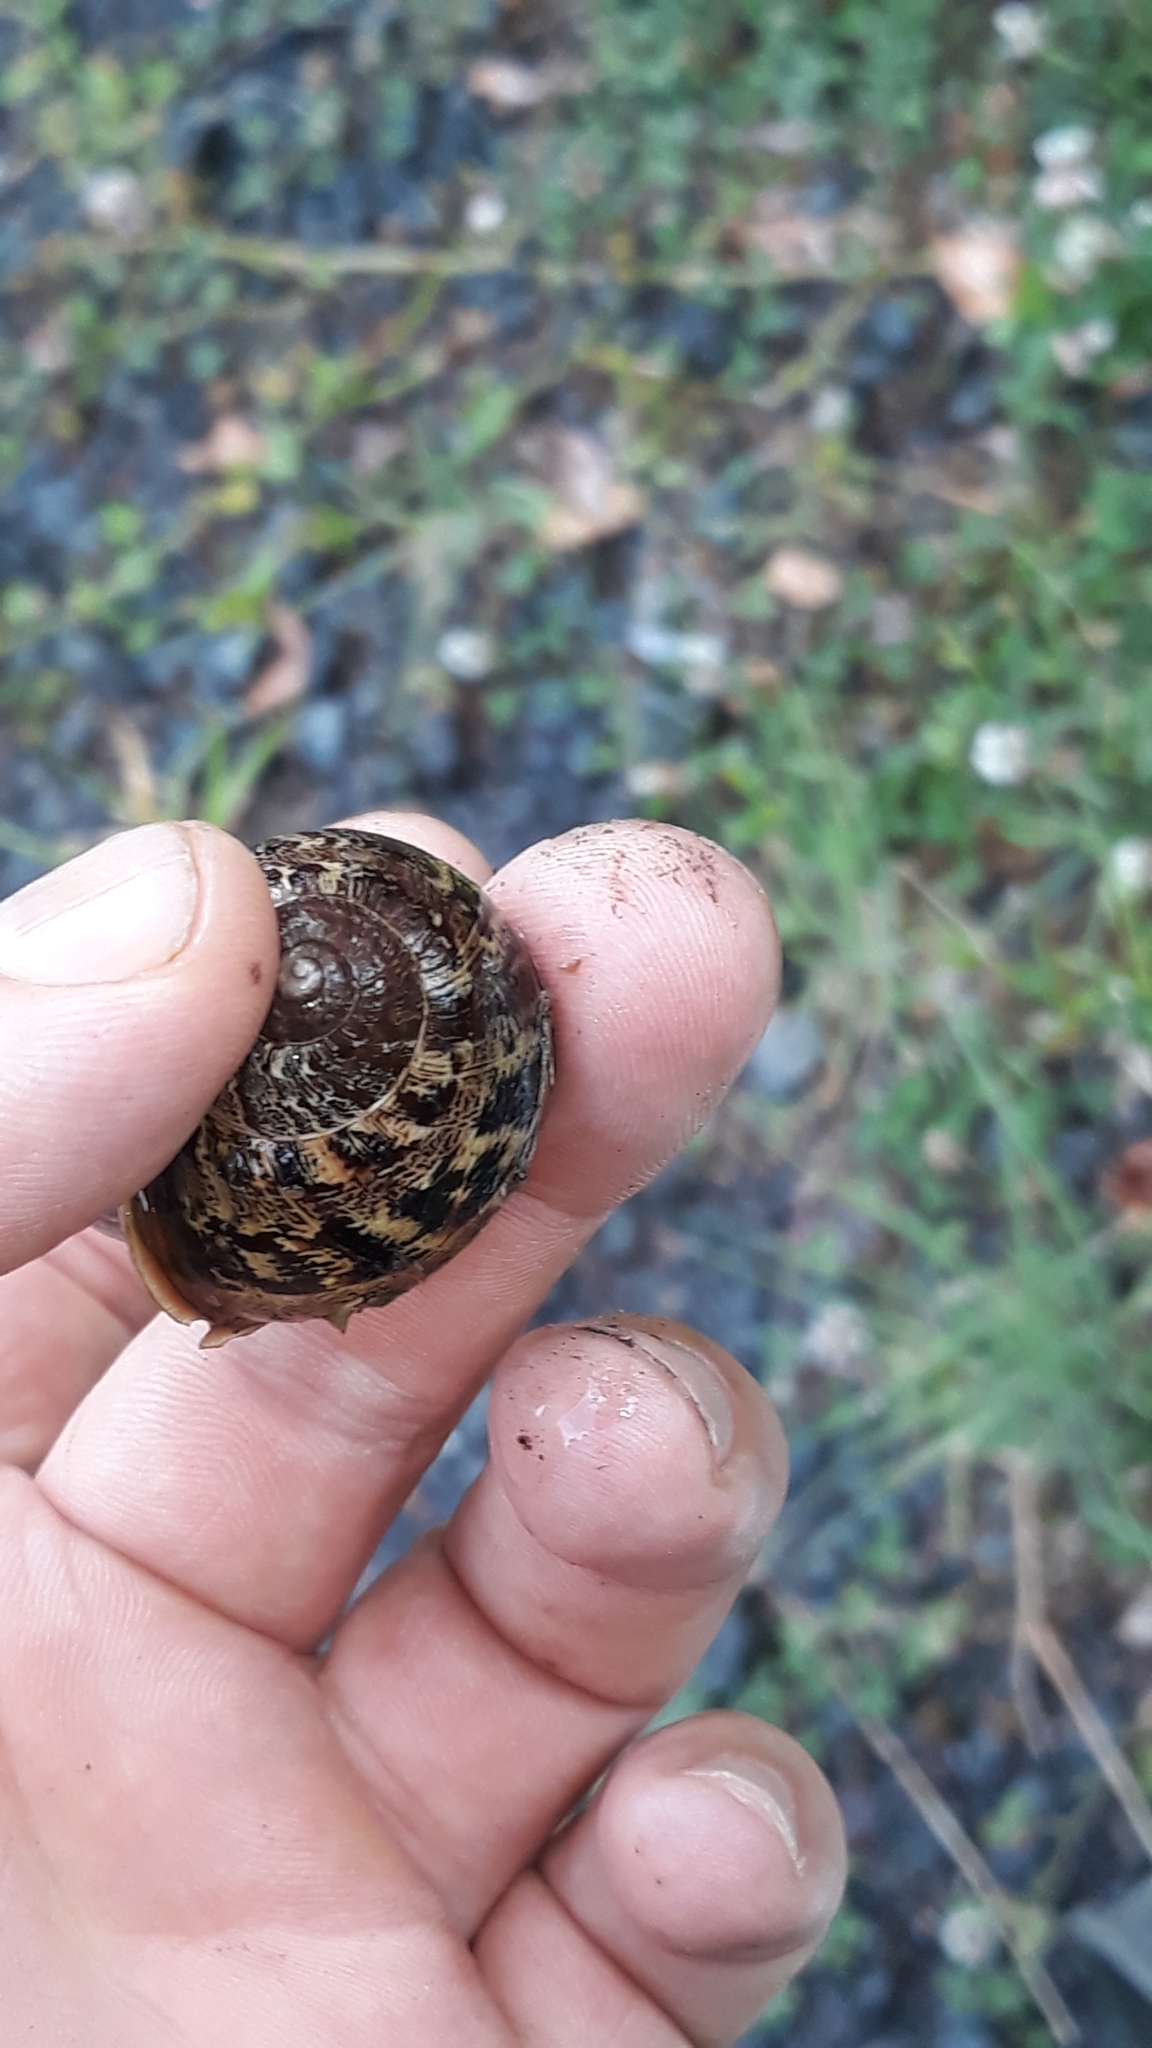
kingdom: Animalia
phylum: Mollusca
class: Gastropoda
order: Stylommatophora
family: Helicidae
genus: Cornu
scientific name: Cornu aspersum
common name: Brown garden snail
